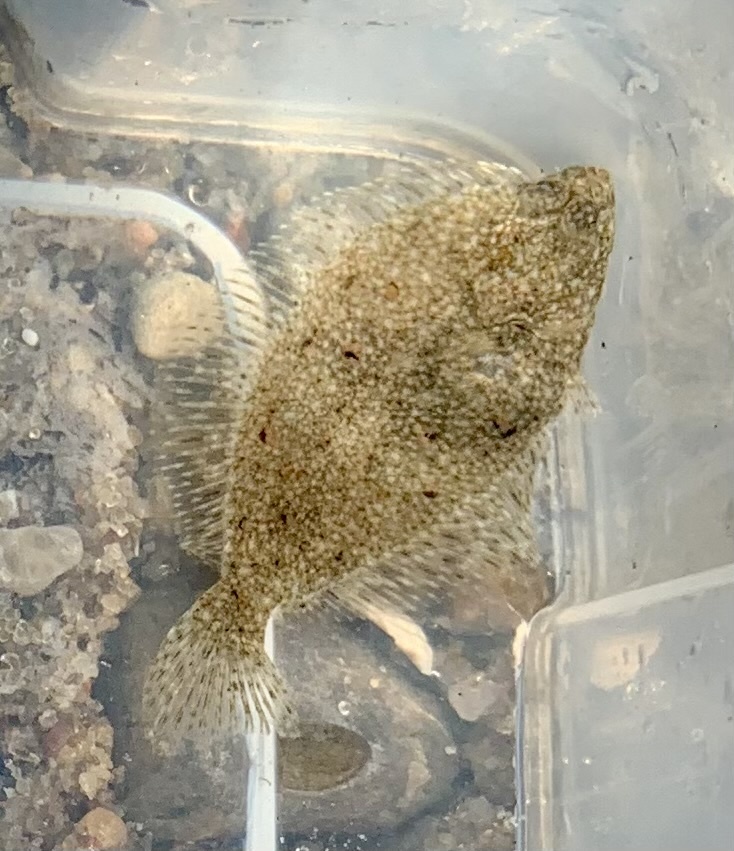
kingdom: Animalia
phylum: Chordata
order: Pleuronectiformes
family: Pleuronectidae
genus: Platichthys
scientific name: Platichthys flesus
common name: European flounder
